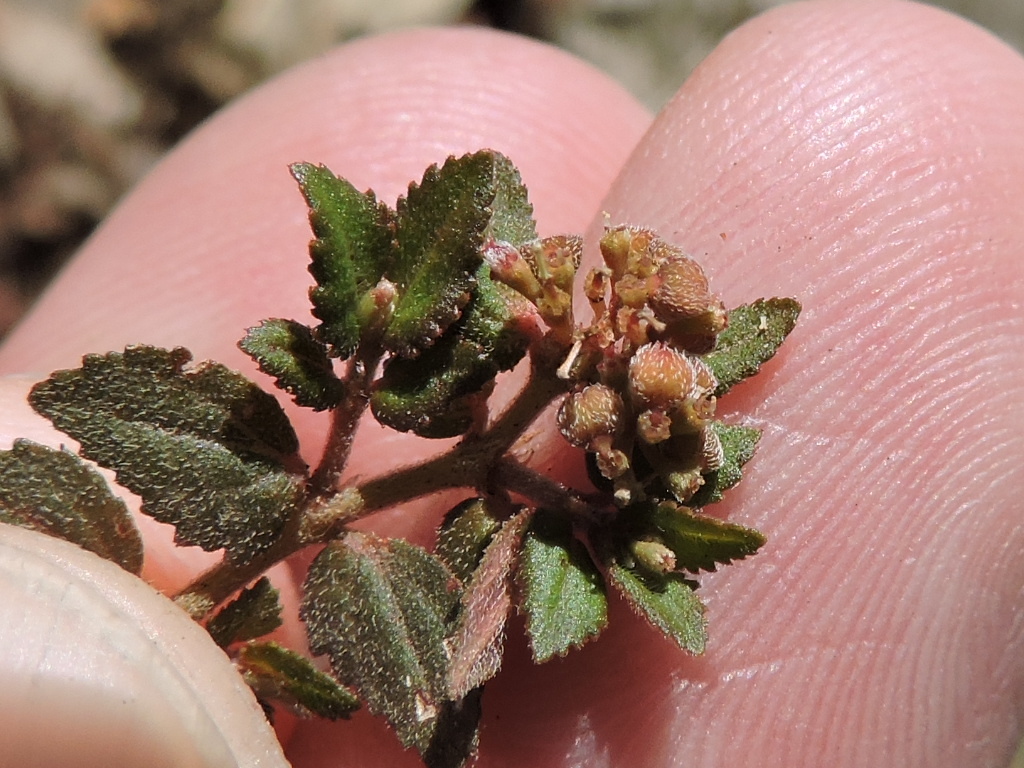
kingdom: Plantae
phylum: Tracheophyta
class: Magnoliopsida
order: Malpighiales
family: Euphorbiaceae
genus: Euphorbia
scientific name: Euphorbia ophthalmica
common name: Florida hammock sandmat
